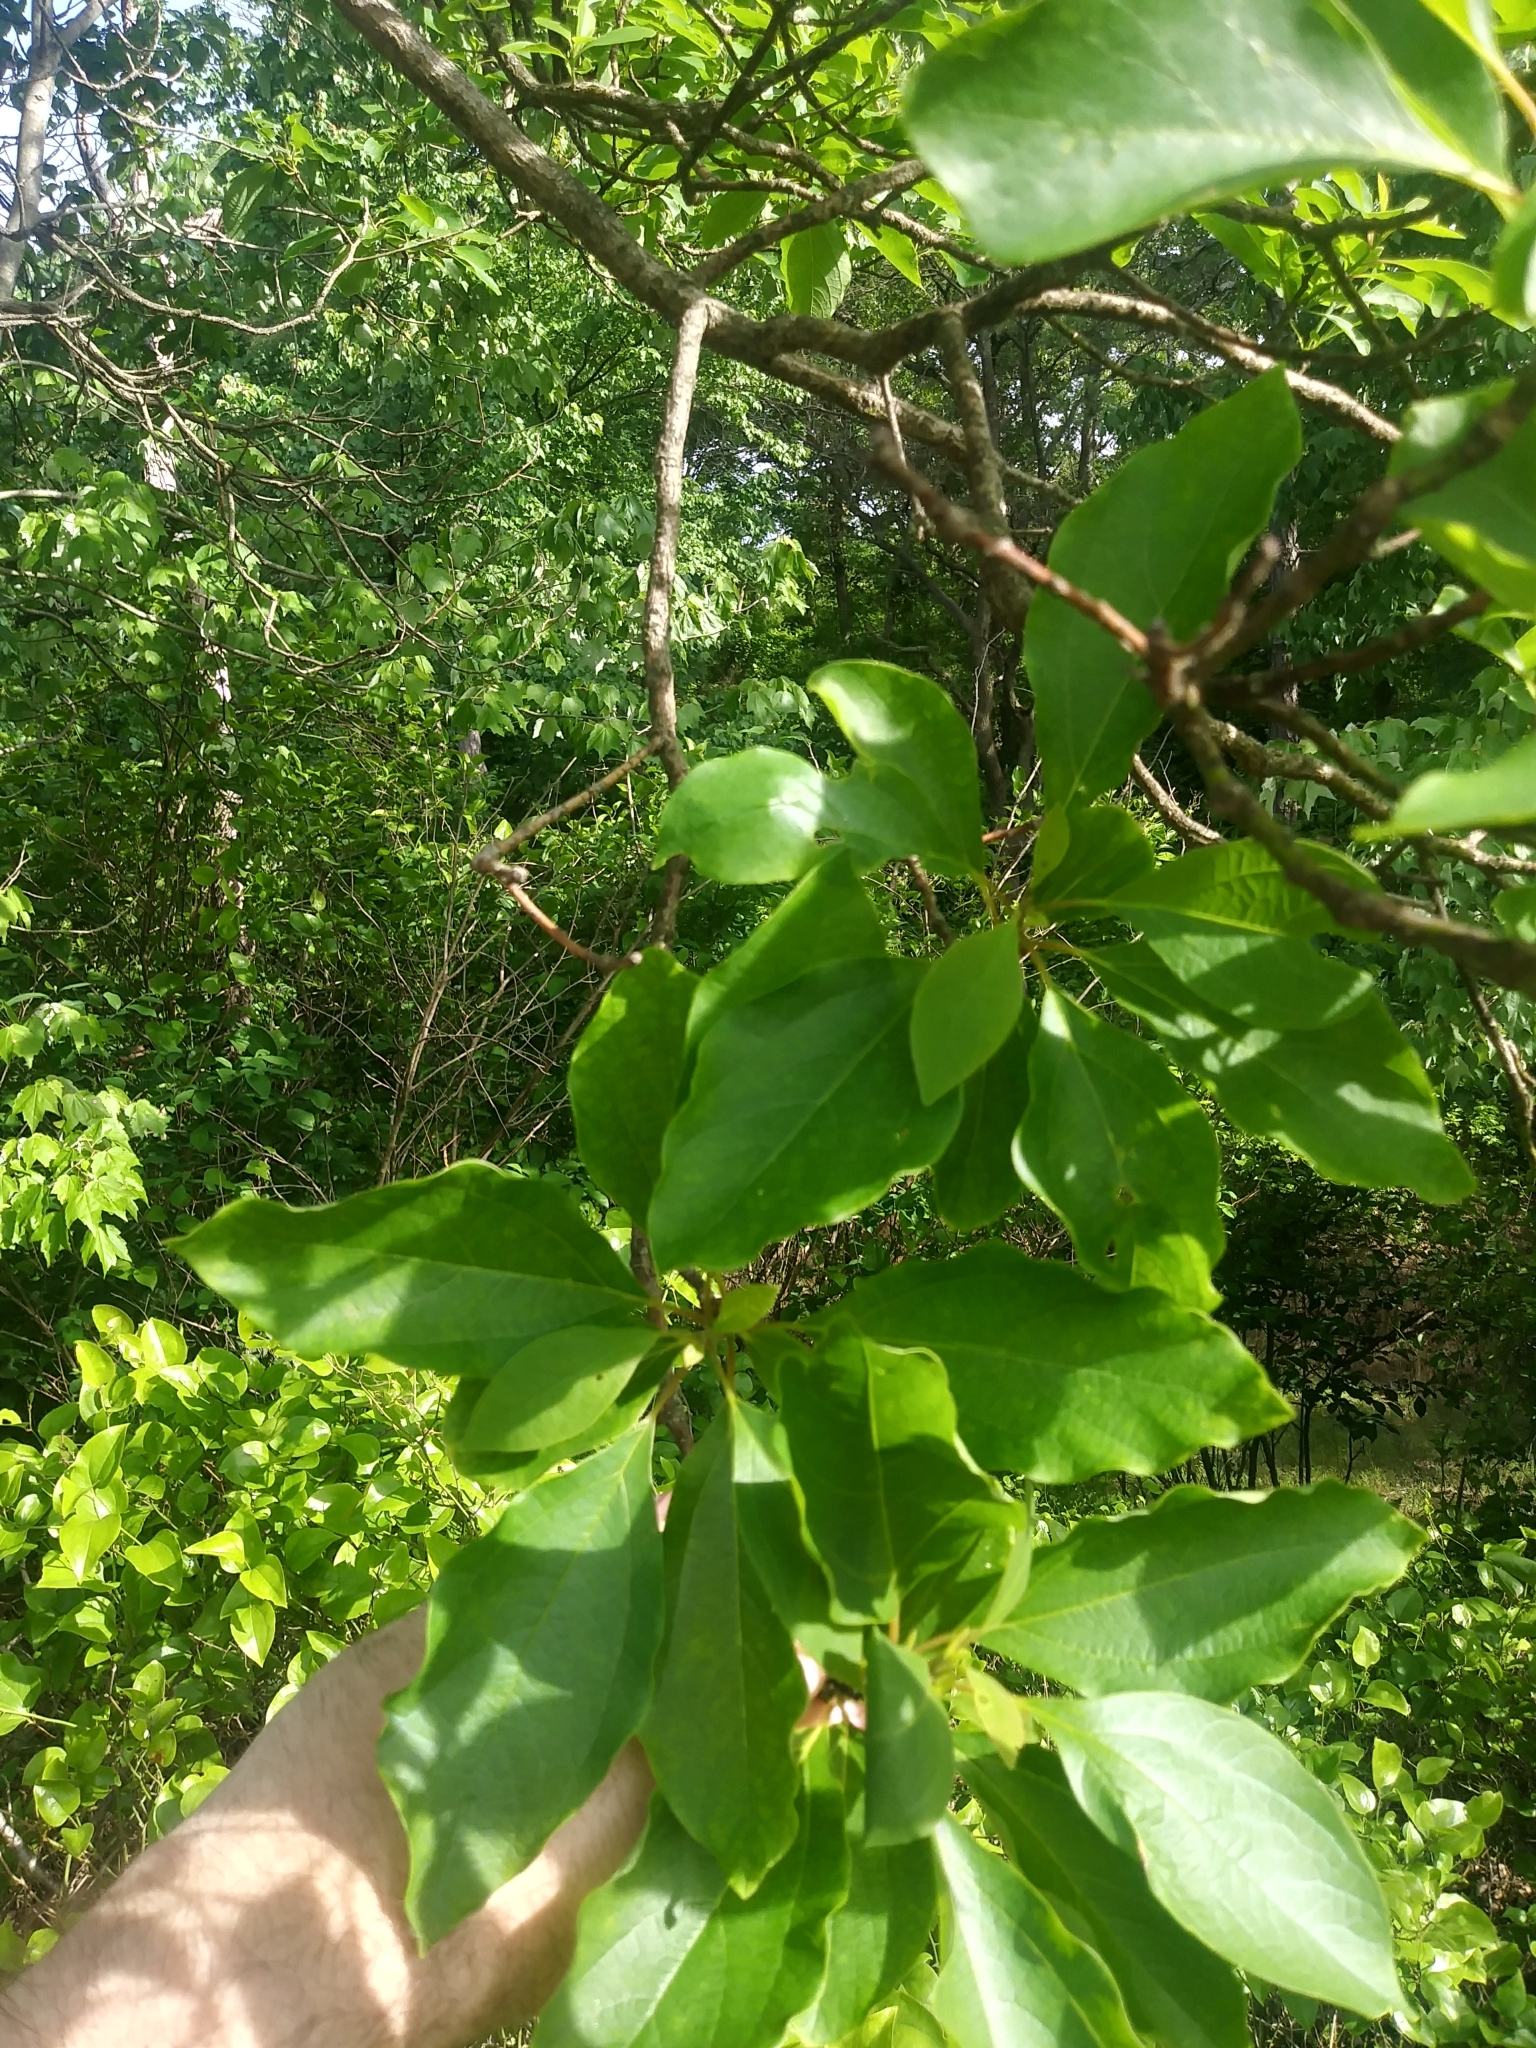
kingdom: Plantae
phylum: Tracheophyta
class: Magnoliopsida
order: Laurales
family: Lauraceae
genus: Sassafras
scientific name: Sassafras albidum
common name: Sassafras
